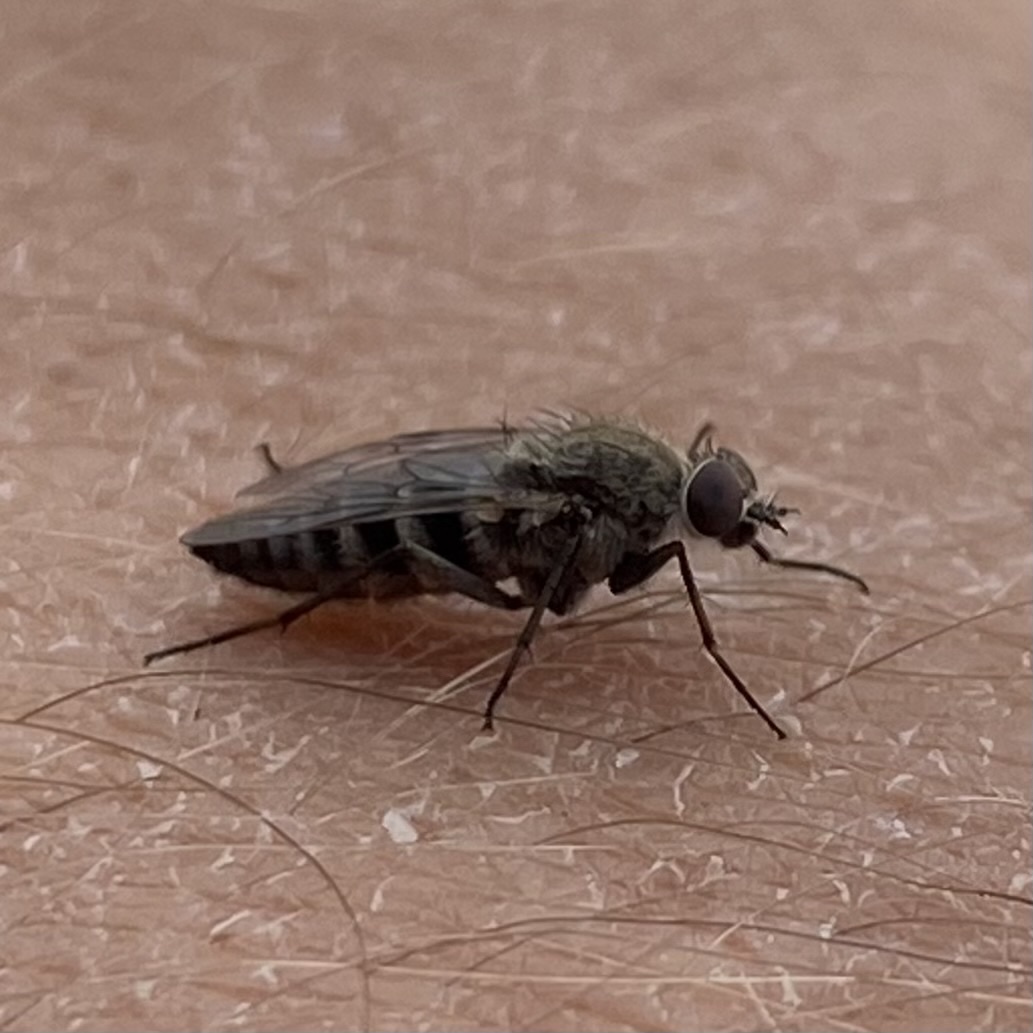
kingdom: Animalia
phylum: Arthropoda
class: Insecta
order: Diptera
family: Therevidae
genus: Brachylinga
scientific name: Brachylinga
